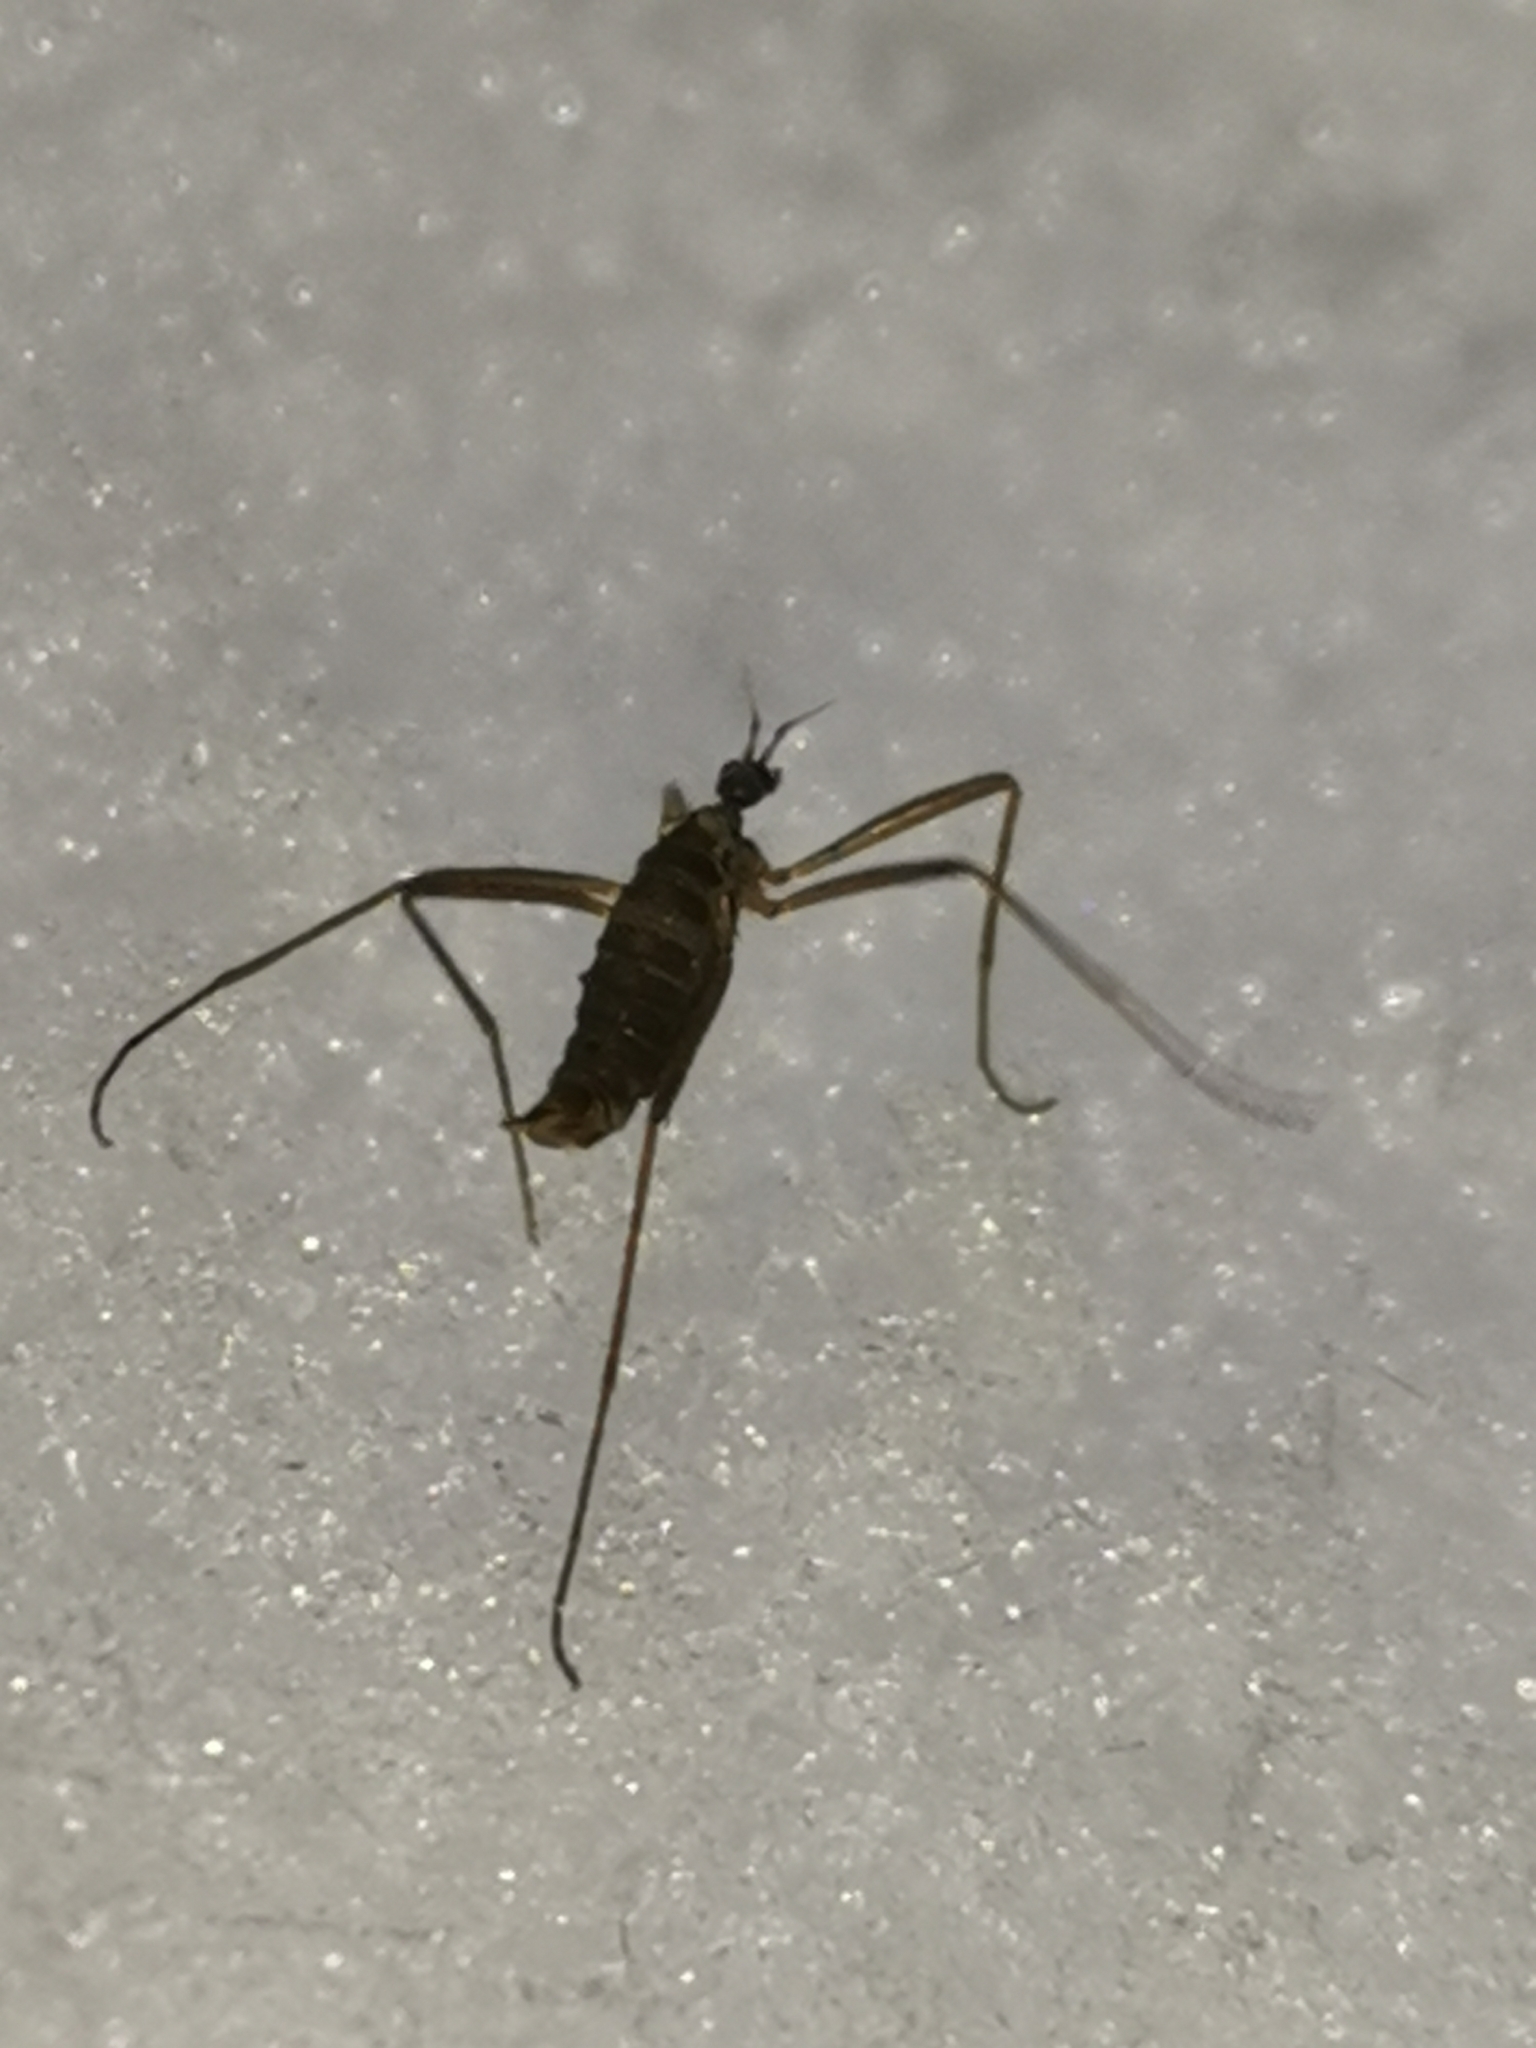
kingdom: Animalia
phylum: Arthropoda
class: Insecta
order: Diptera
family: Limoniidae
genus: Chionea
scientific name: Chionea araneoides
